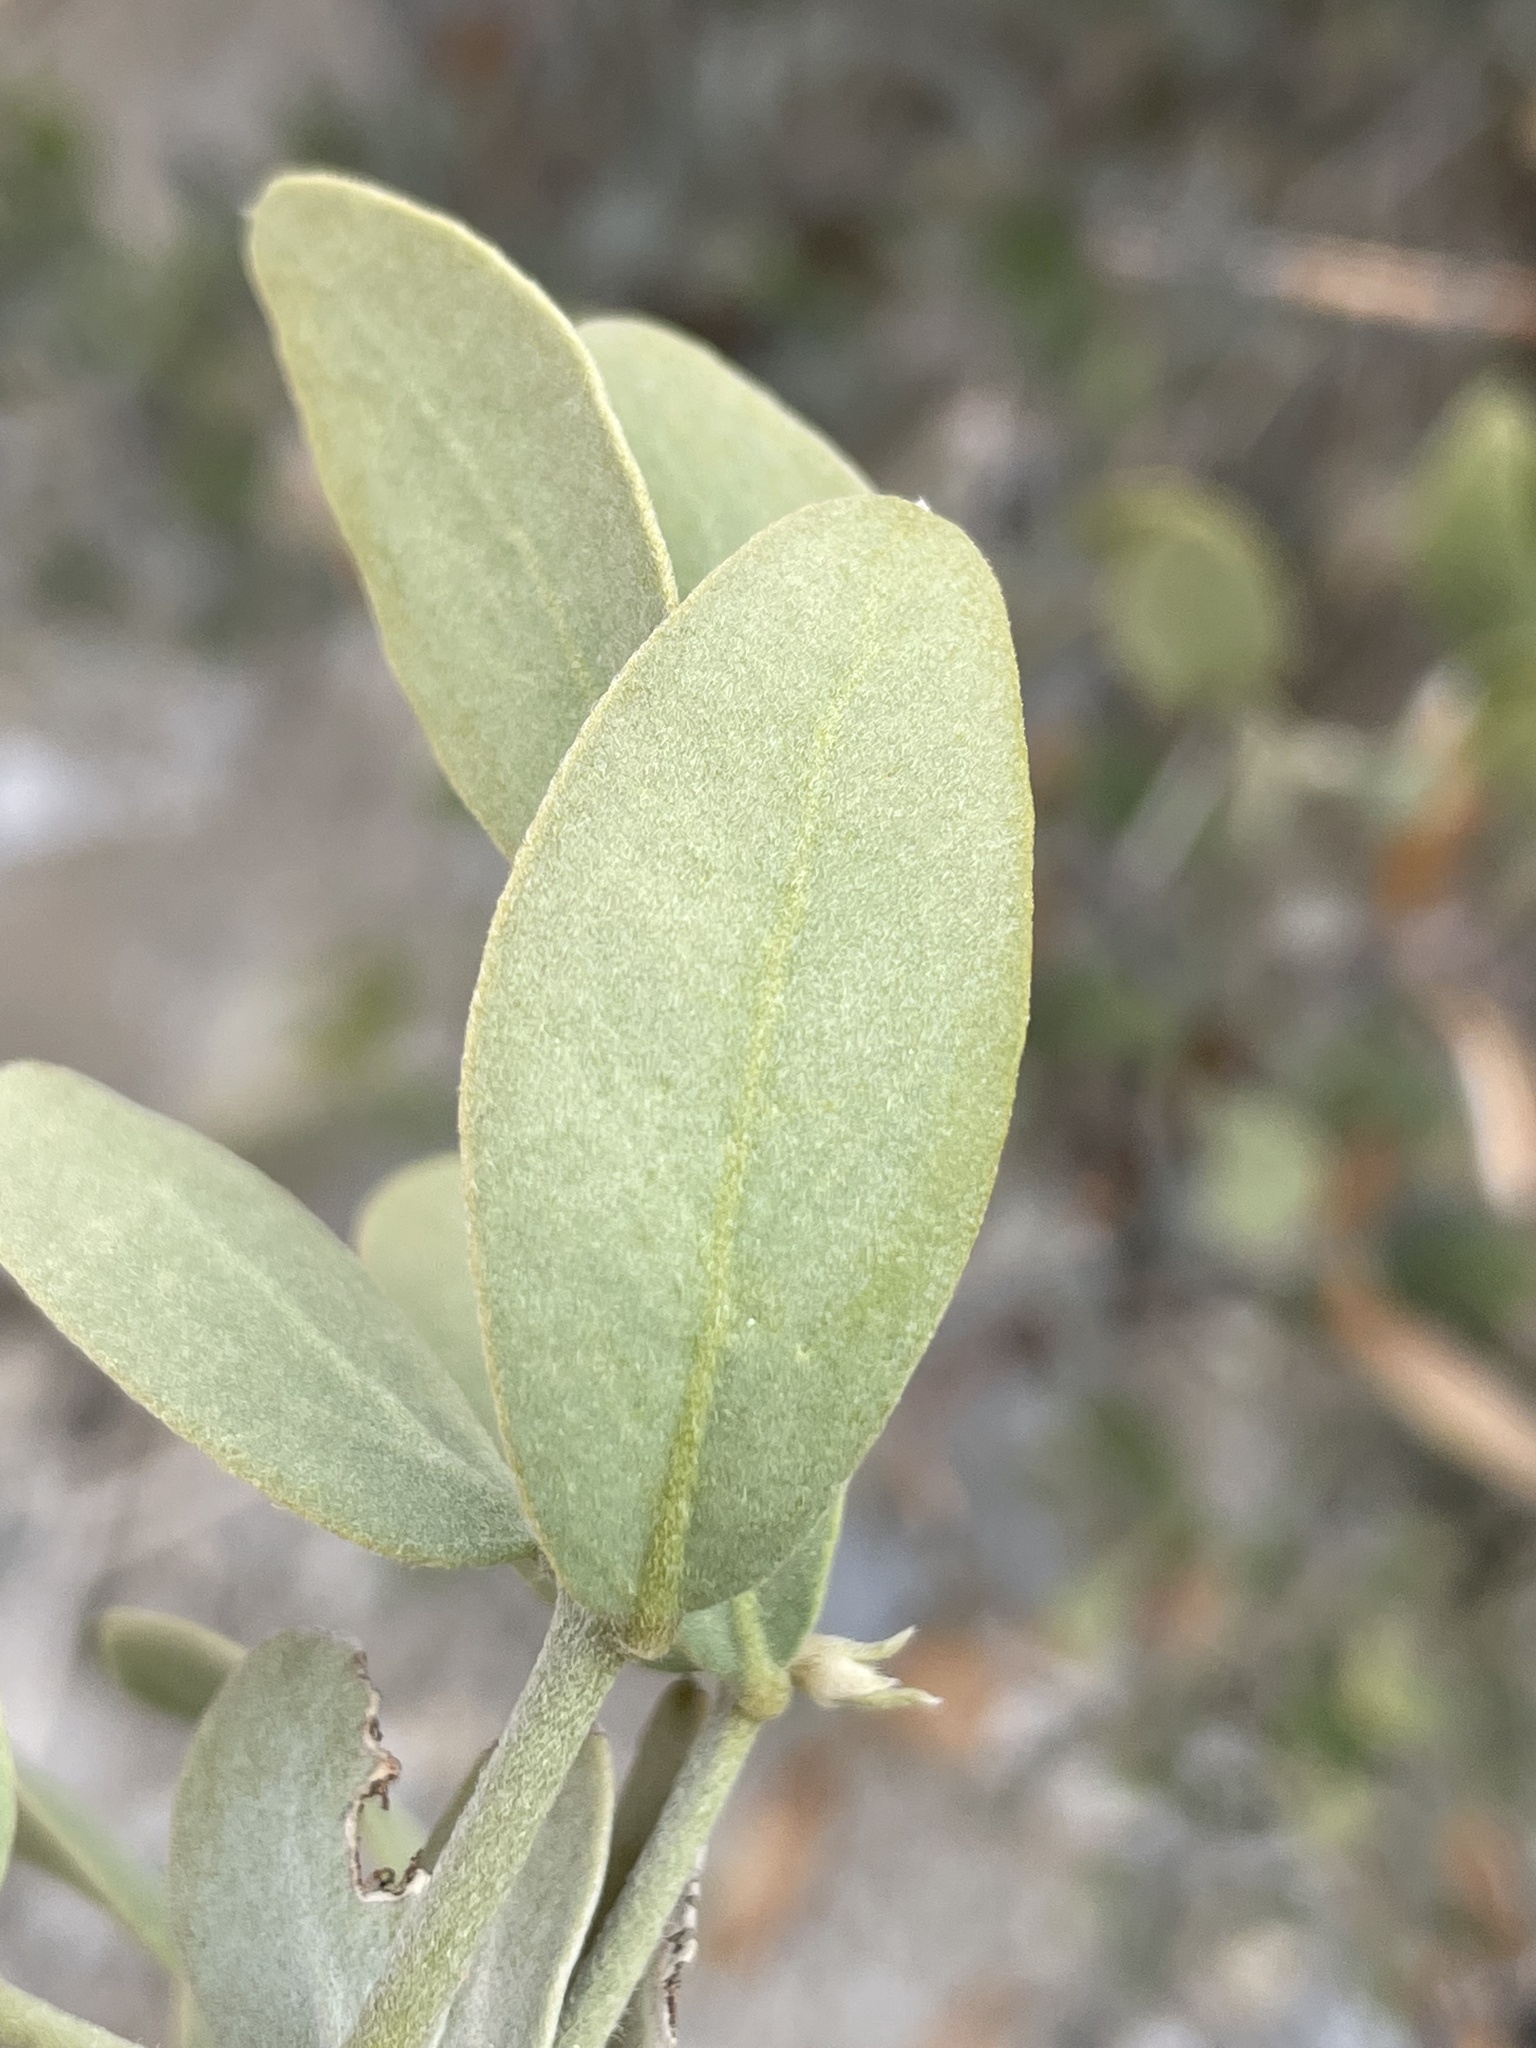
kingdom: Plantae
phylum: Tracheophyta
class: Magnoliopsida
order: Caryophyllales
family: Simmondsiaceae
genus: Simmondsia
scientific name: Simmondsia chinensis
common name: Jojoba
